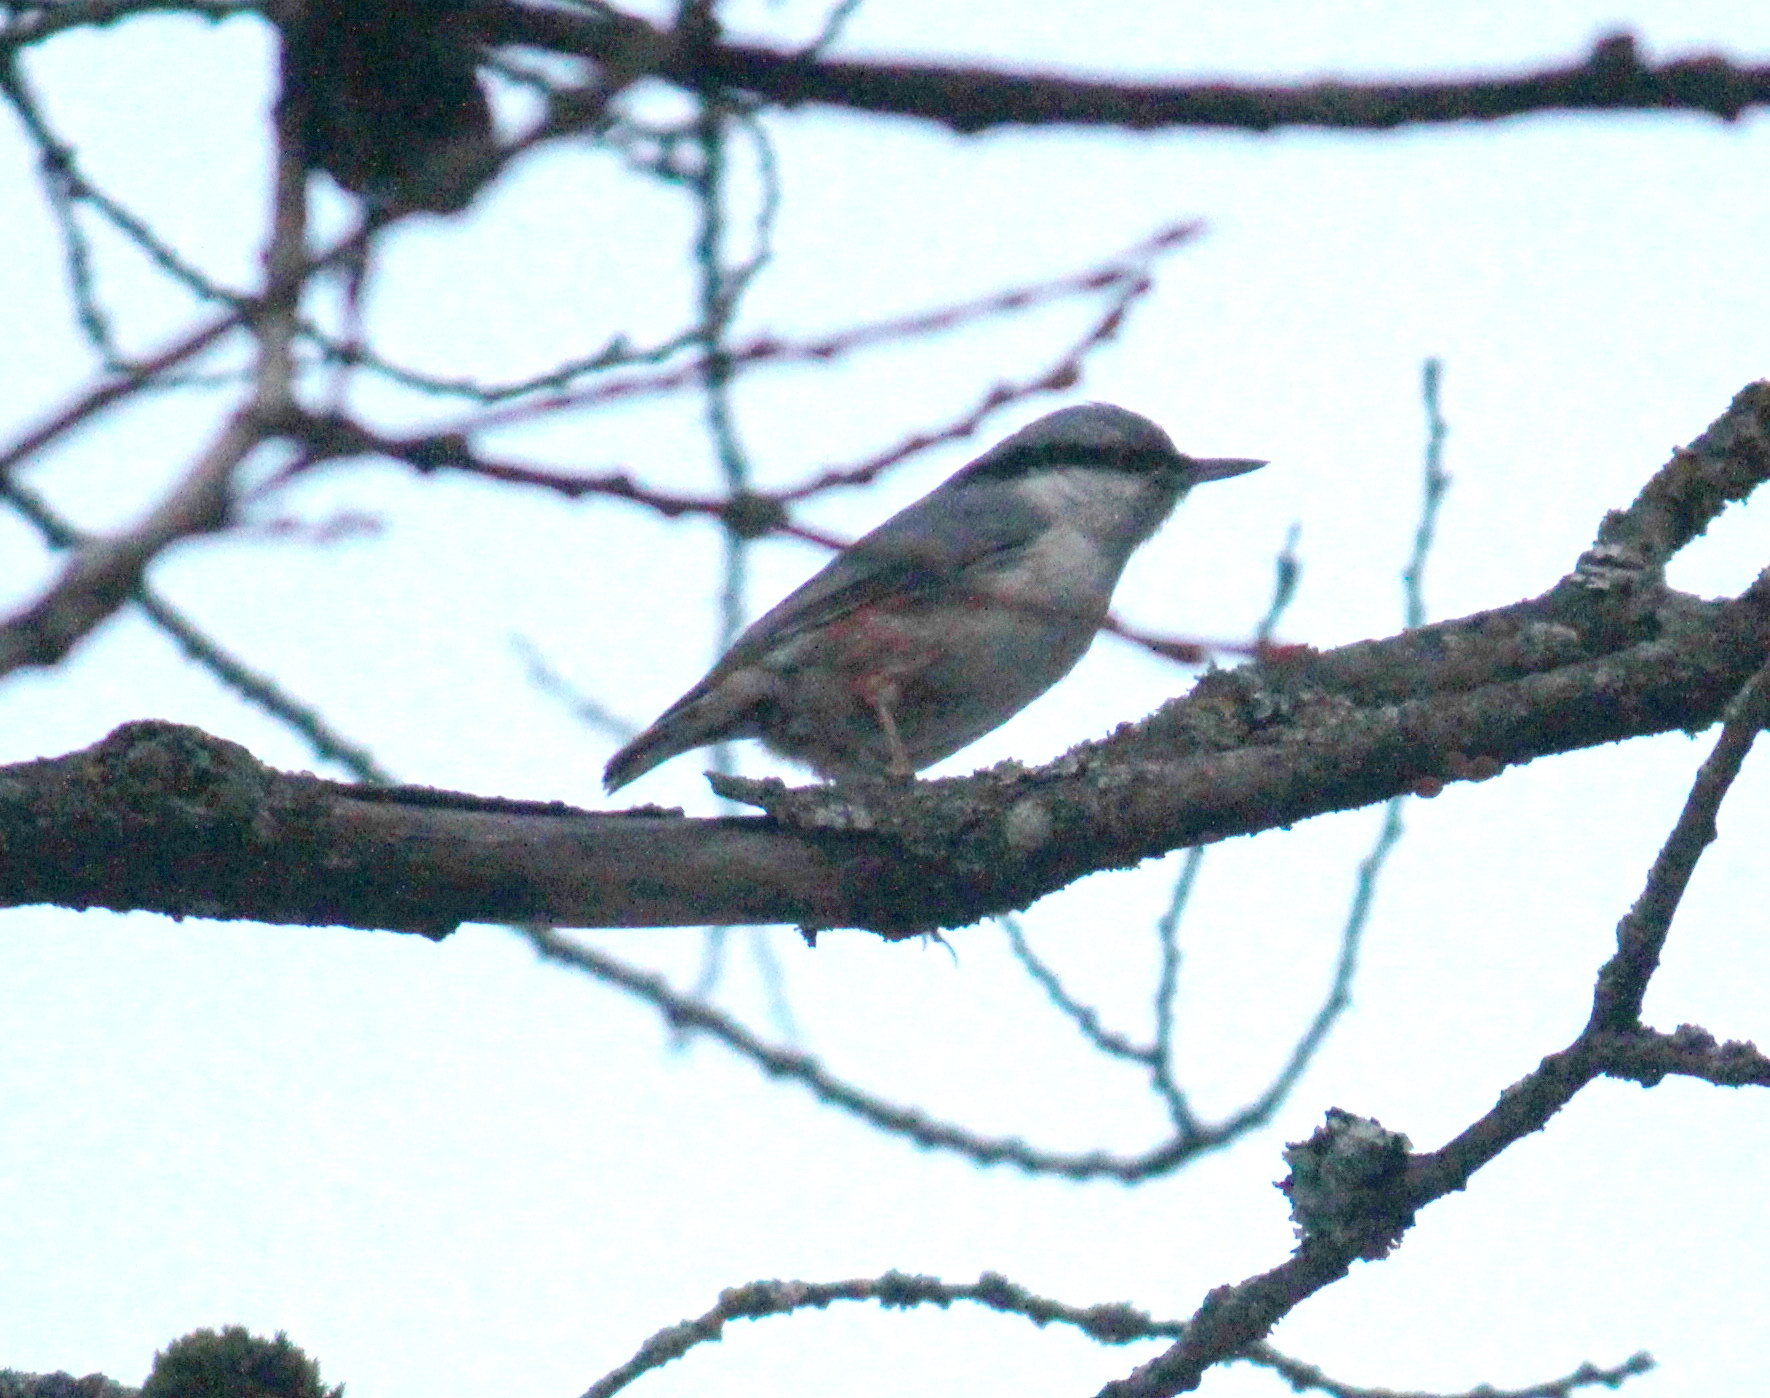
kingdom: Animalia
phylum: Chordata
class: Aves
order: Passeriformes
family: Sittidae
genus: Sitta
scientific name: Sitta europaea
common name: Eurasian nuthatch
